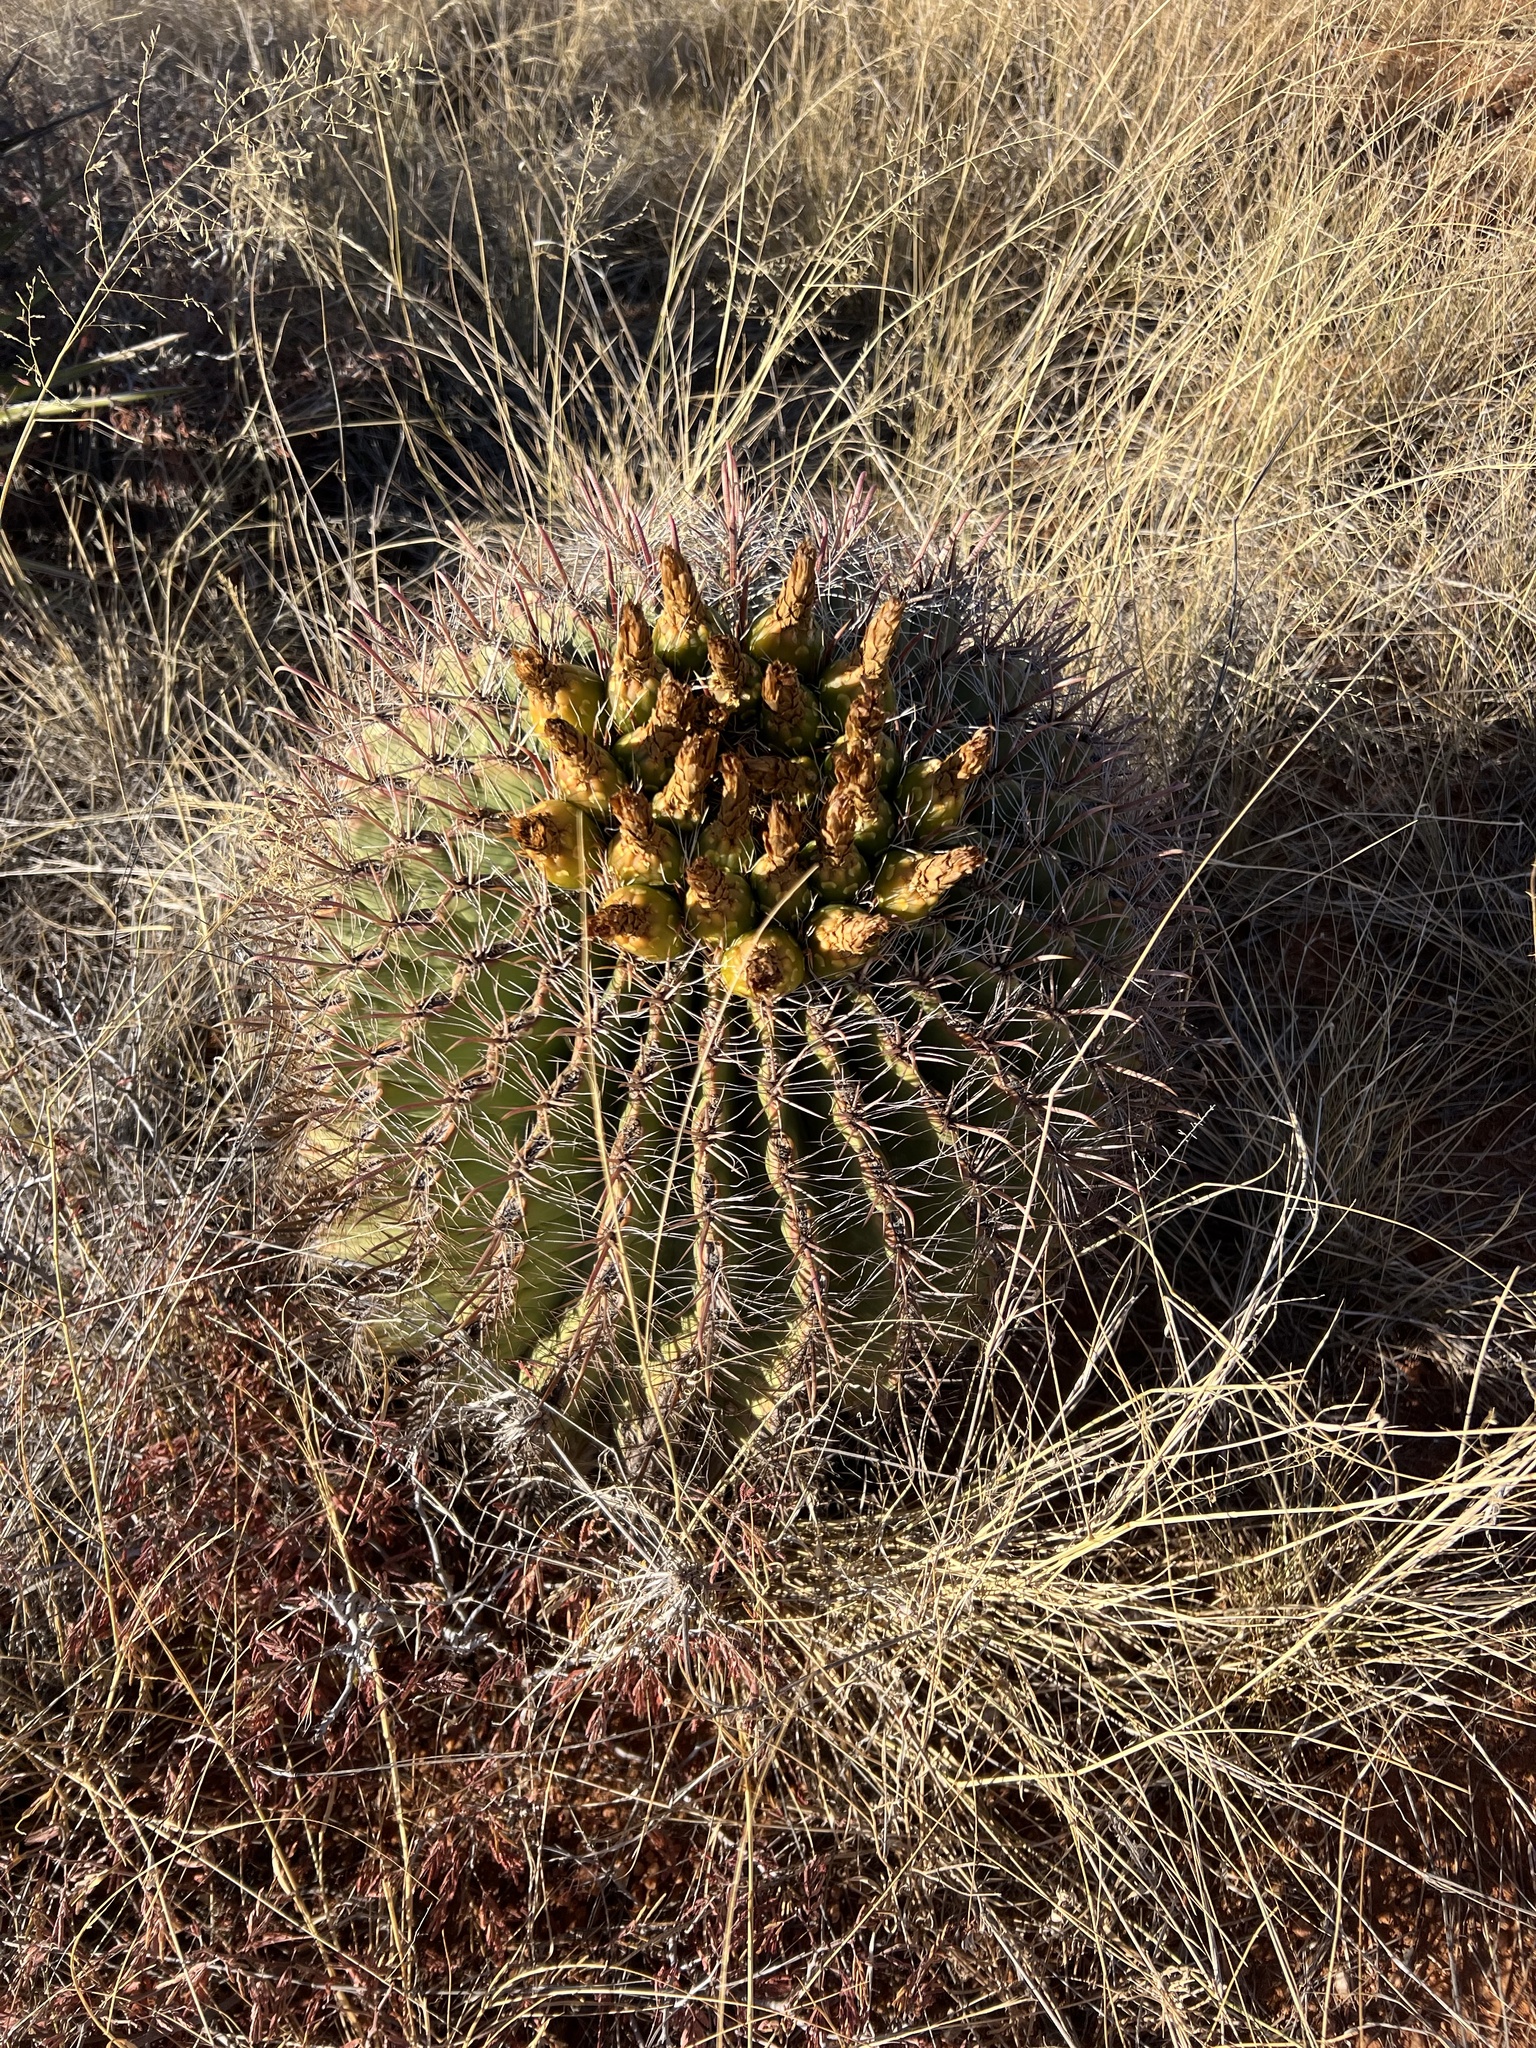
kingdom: Plantae
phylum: Tracheophyta
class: Magnoliopsida
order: Caryophyllales
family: Cactaceae
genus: Ferocactus
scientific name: Ferocactus wislizeni
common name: Candy barrel cactus
